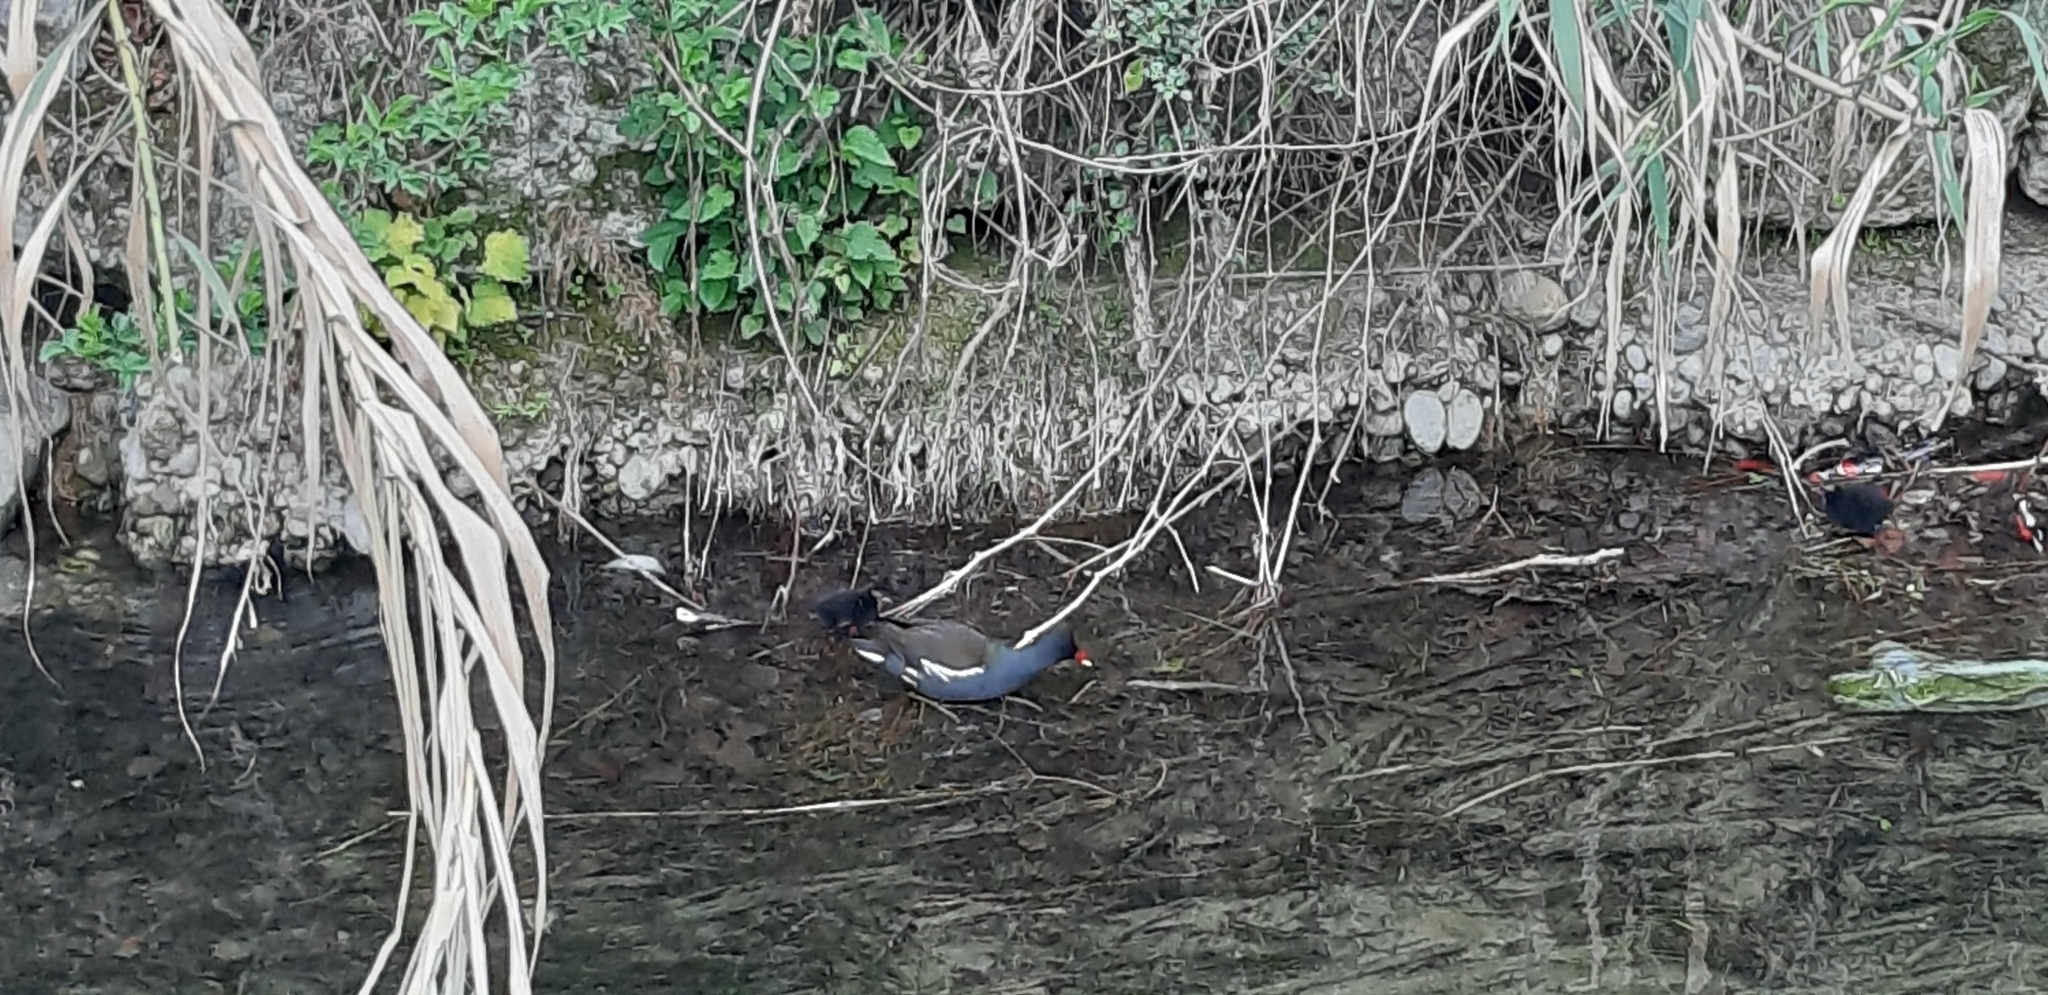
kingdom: Animalia
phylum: Chordata
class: Aves
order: Gruiformes
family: Rallidae
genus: Gallinula
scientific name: Gallinula chloropus
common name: Common moorhen
